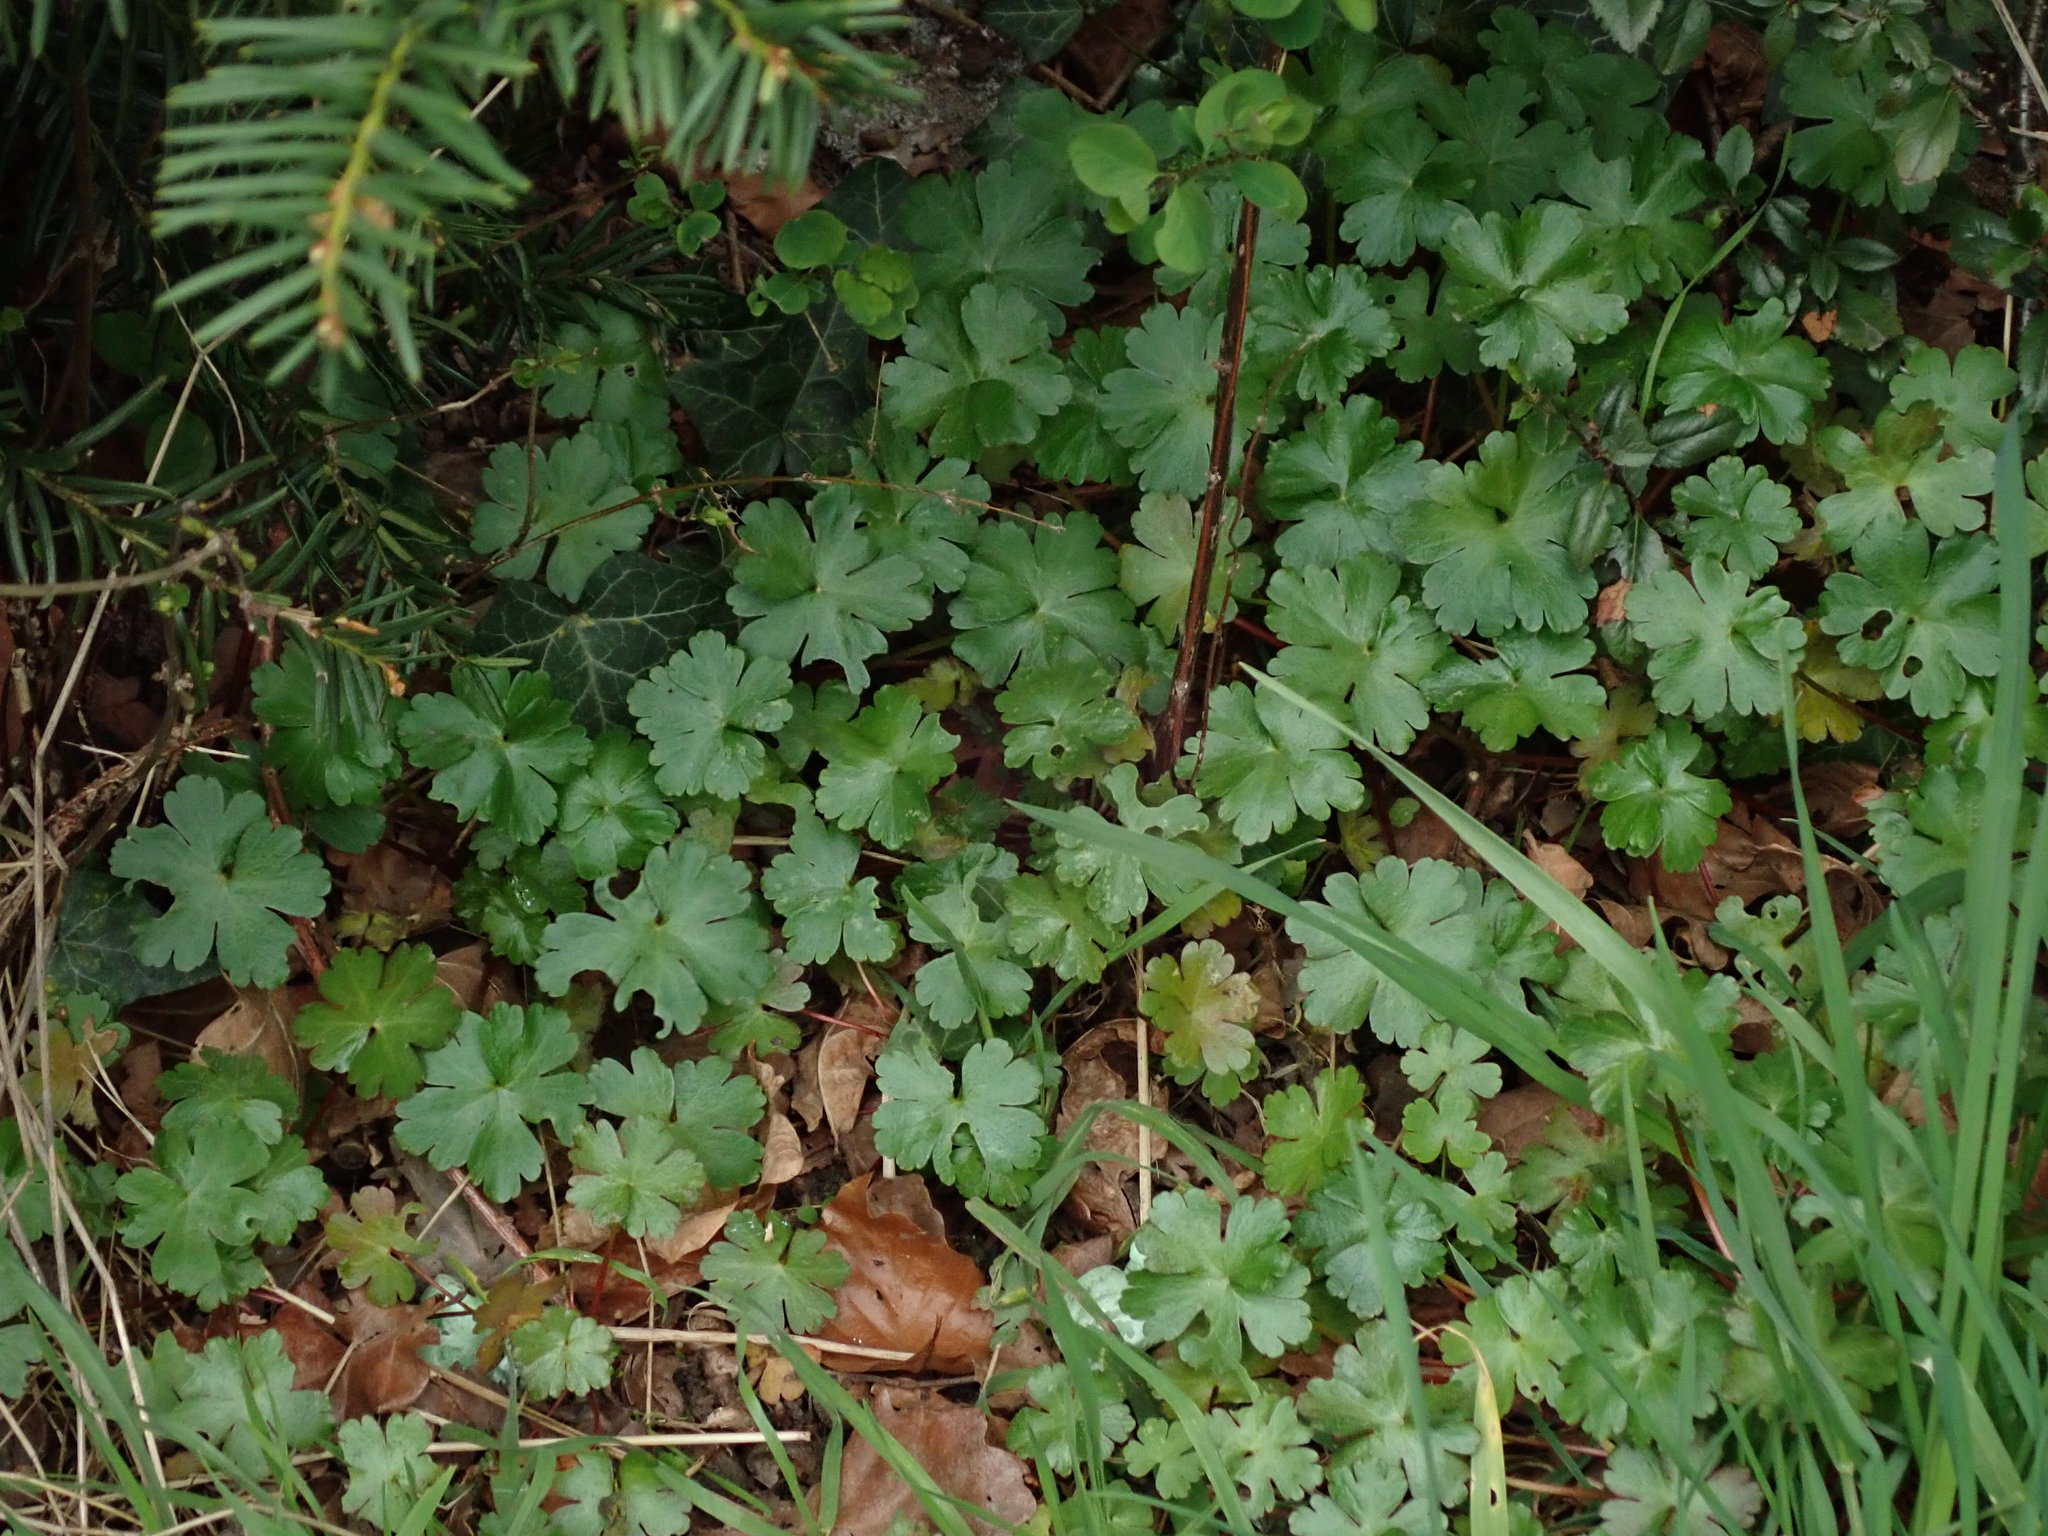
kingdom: Plantae
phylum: Tracheophyta
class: Magnoliopsida
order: Geraniales
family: Geraniaceae
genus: Geranium
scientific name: Geranium lucidum
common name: Shining crane's-bill
